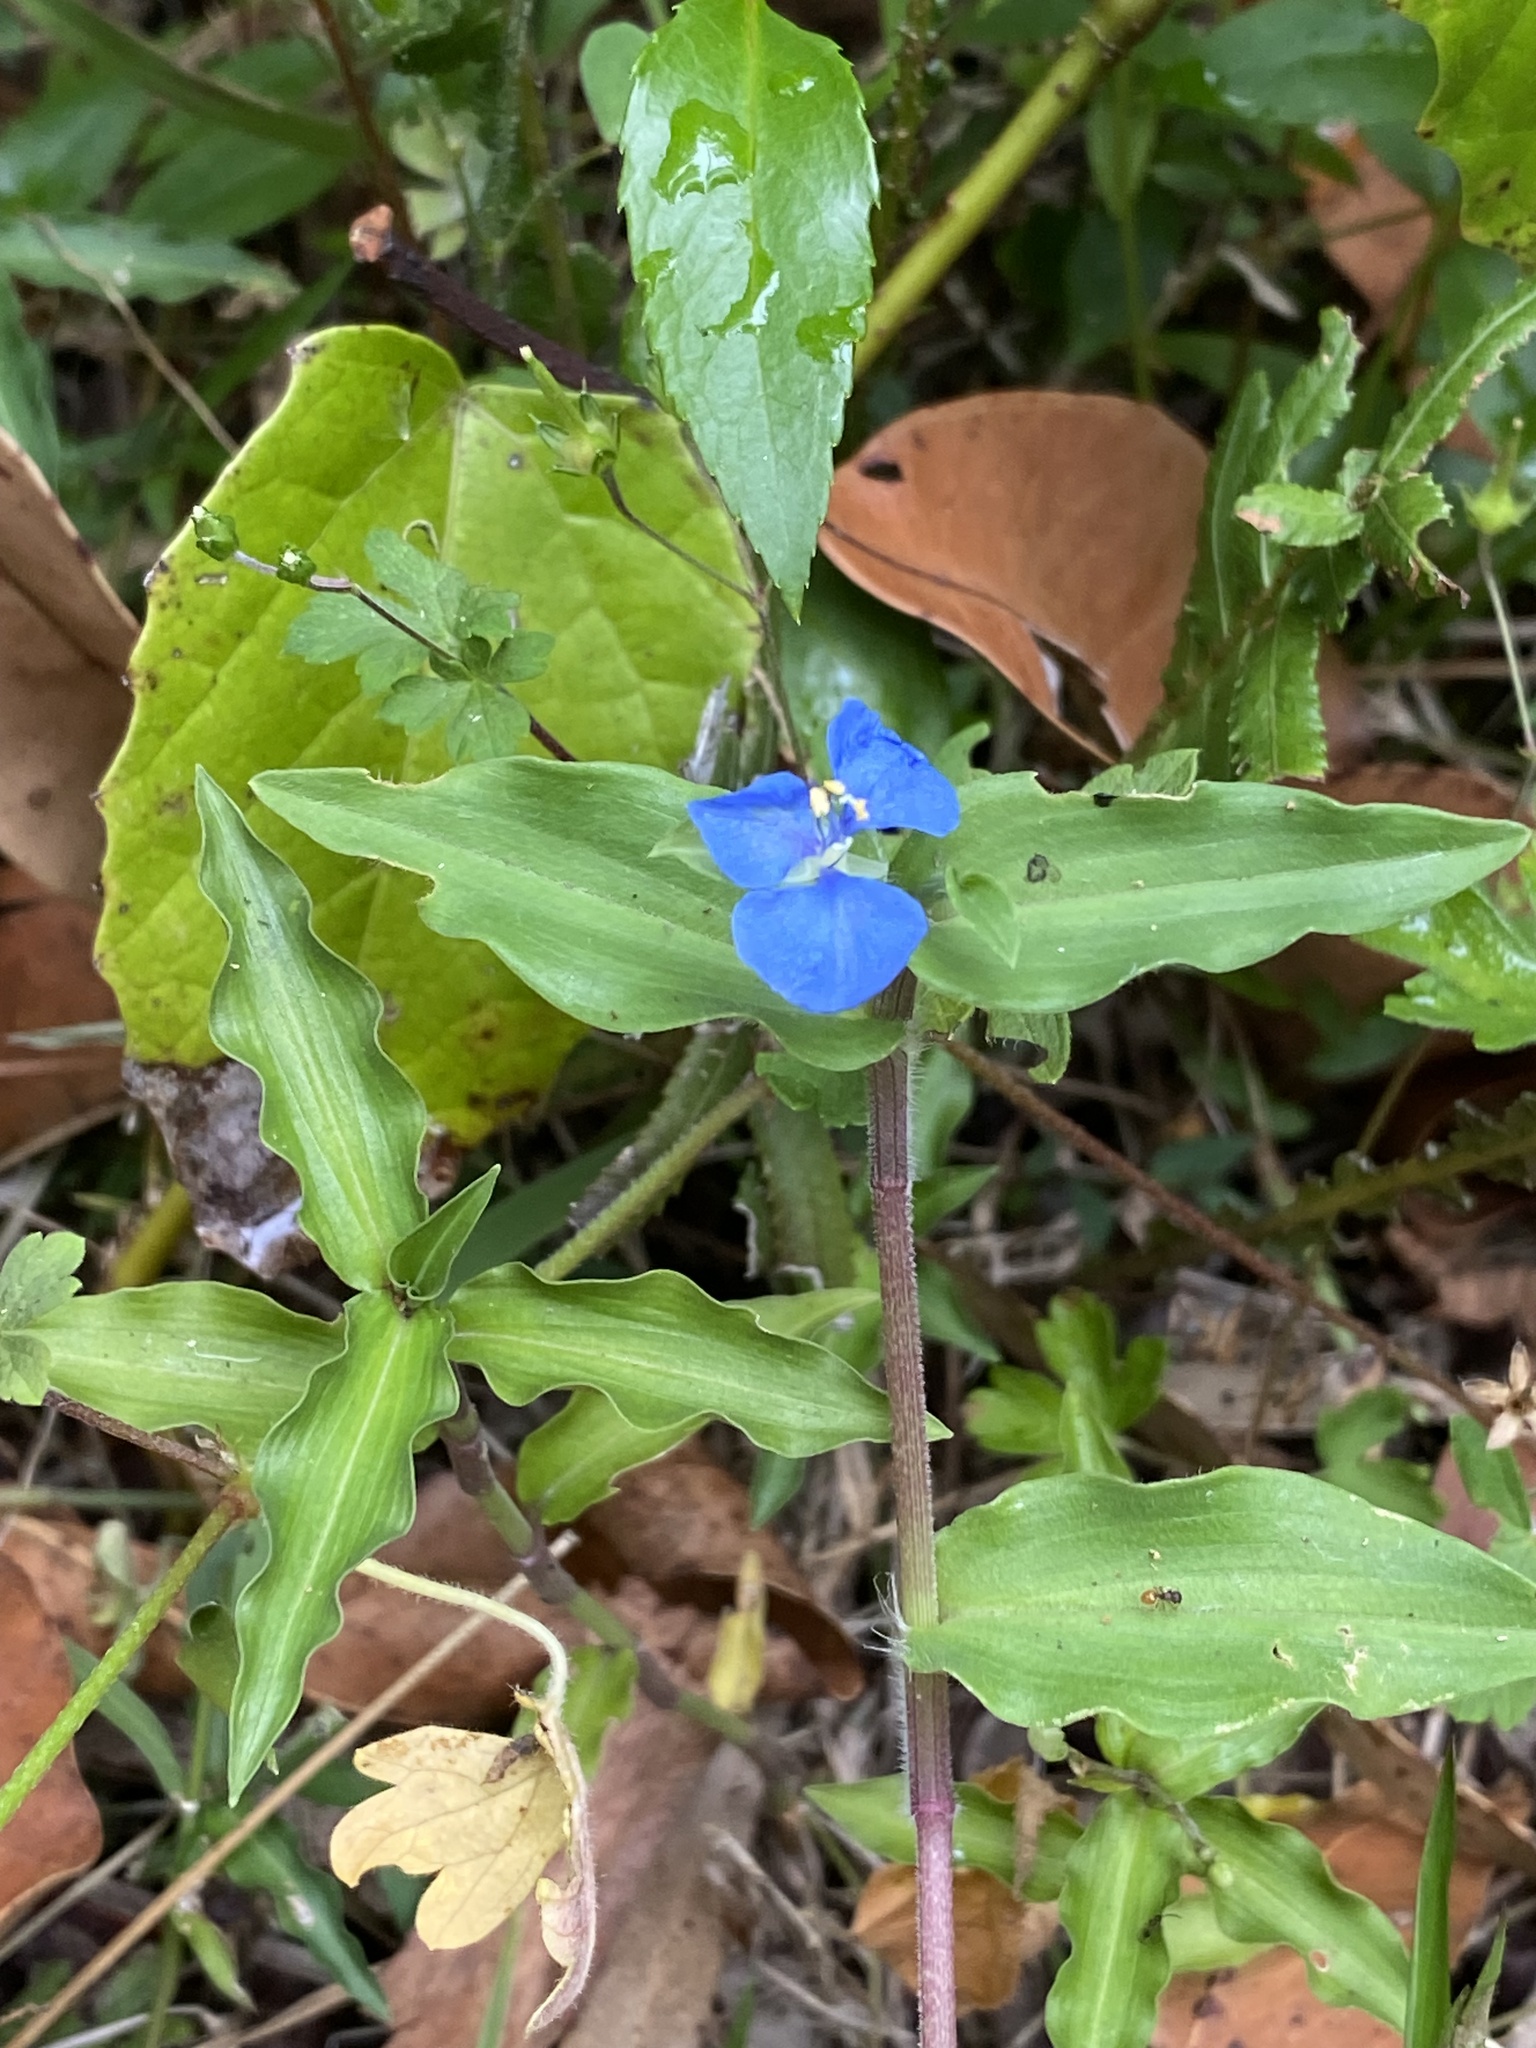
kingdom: Plantae
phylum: Tracheophyta
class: Liliopsida
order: Commelinales
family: Commelinaceae
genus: Commelina
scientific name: Commelina cyanea
